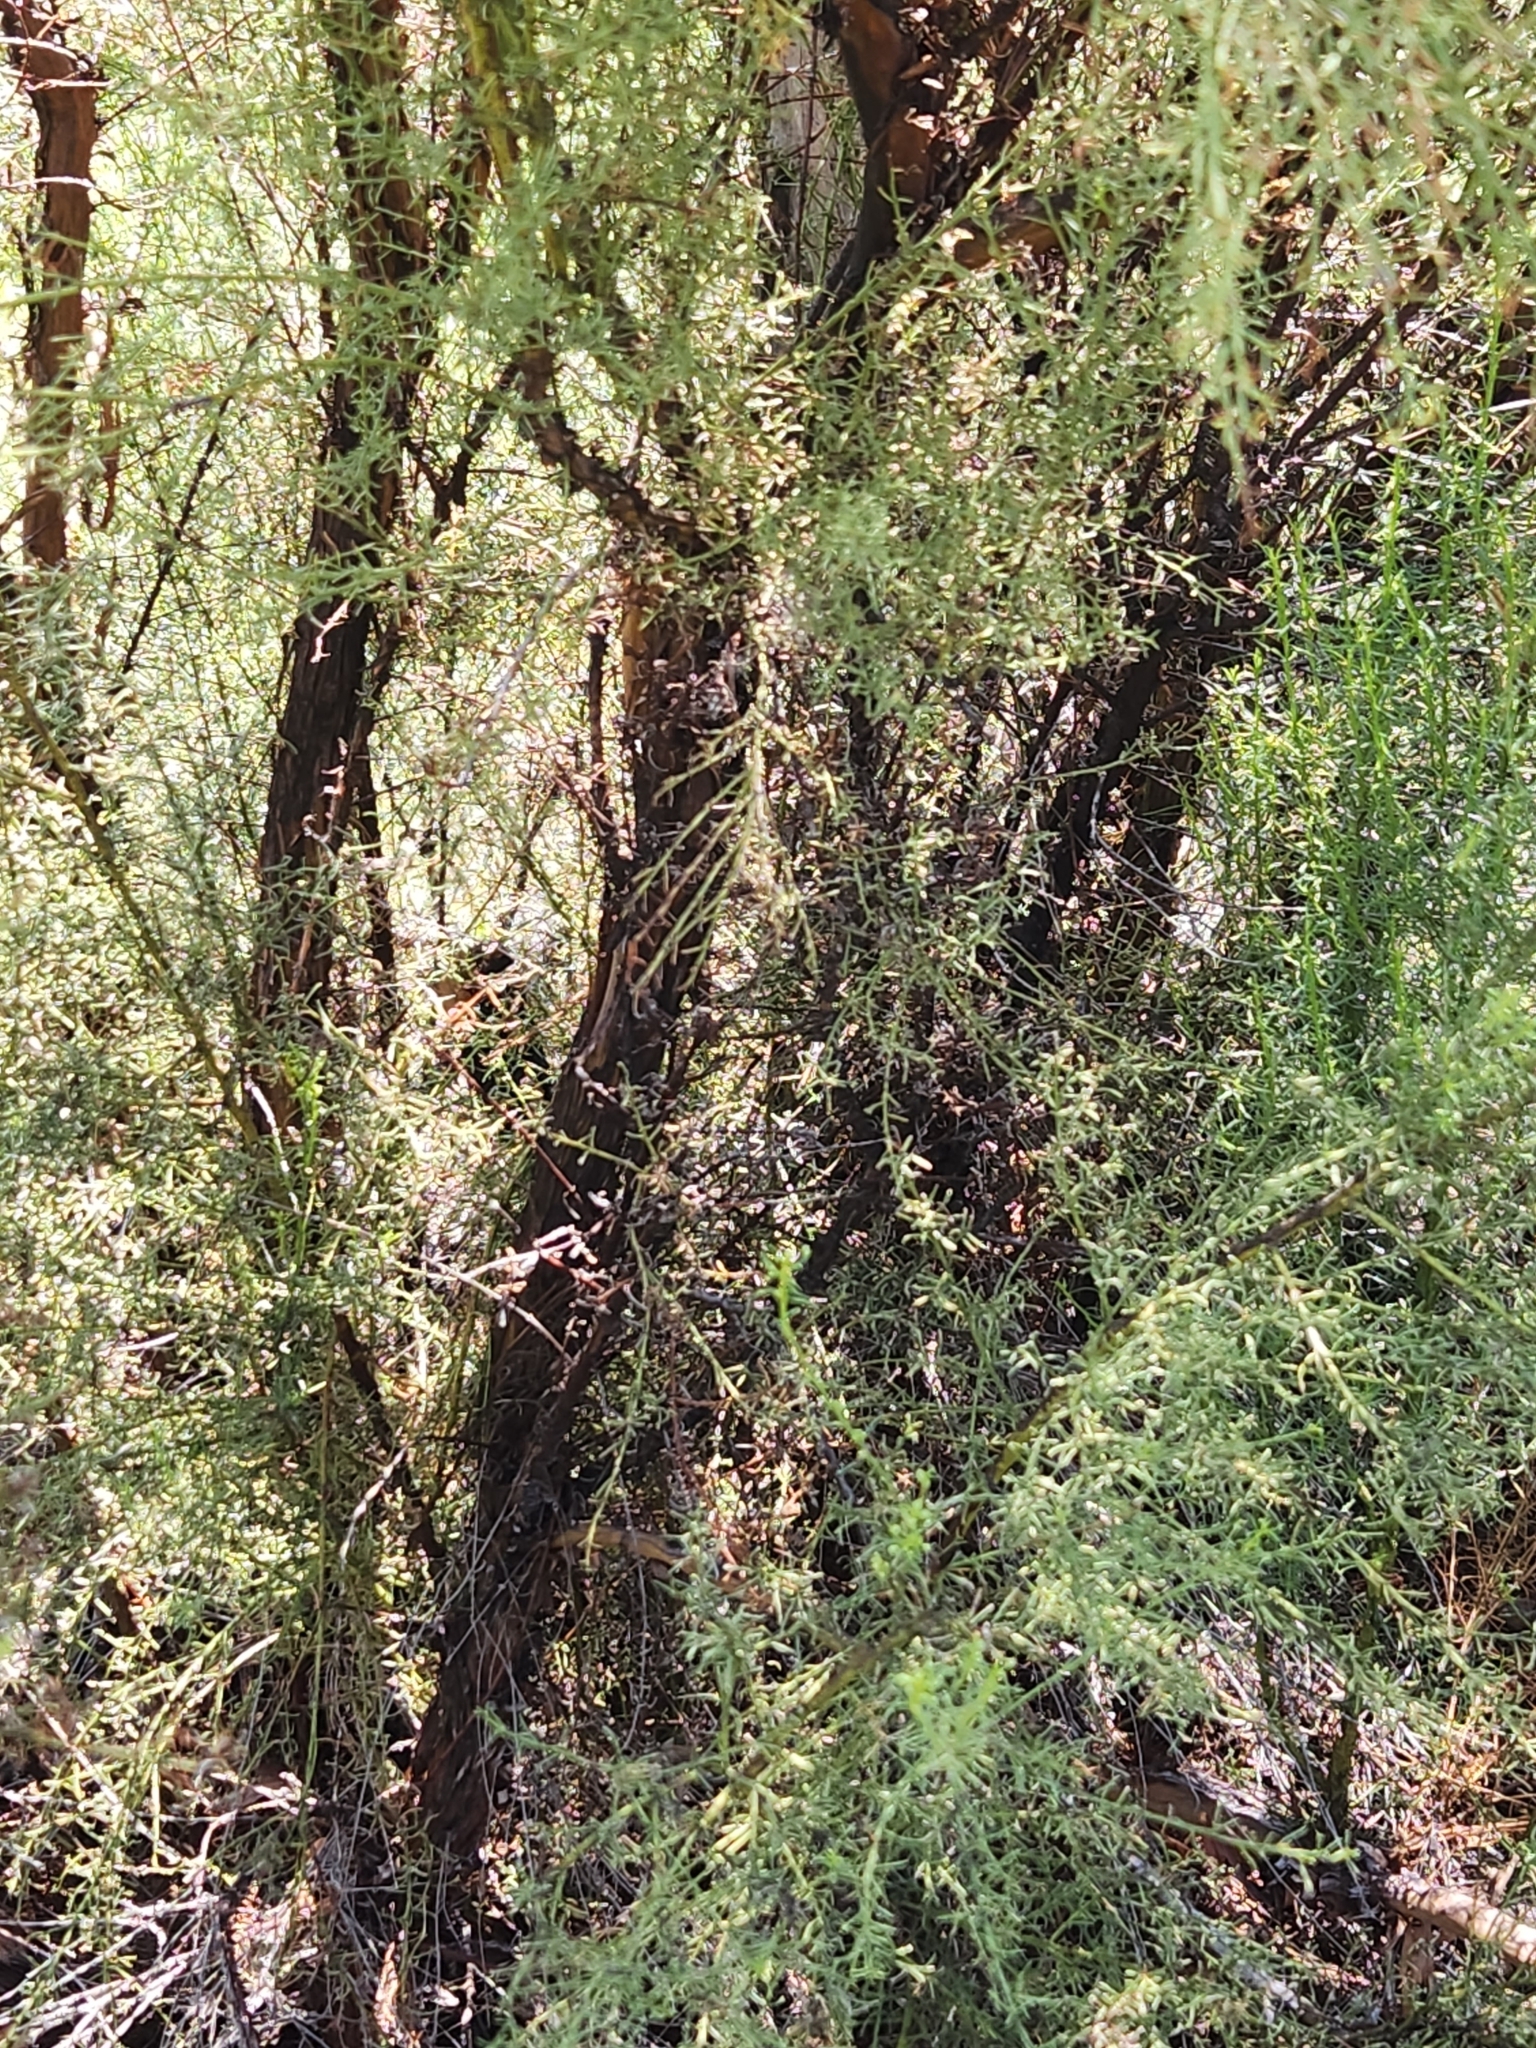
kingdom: Plantae
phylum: Tracheophyta
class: Magnoliopsida
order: Rosales
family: Rosaceae
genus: Adenostoma
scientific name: Adenostoma sparsifolium
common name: Red shank
